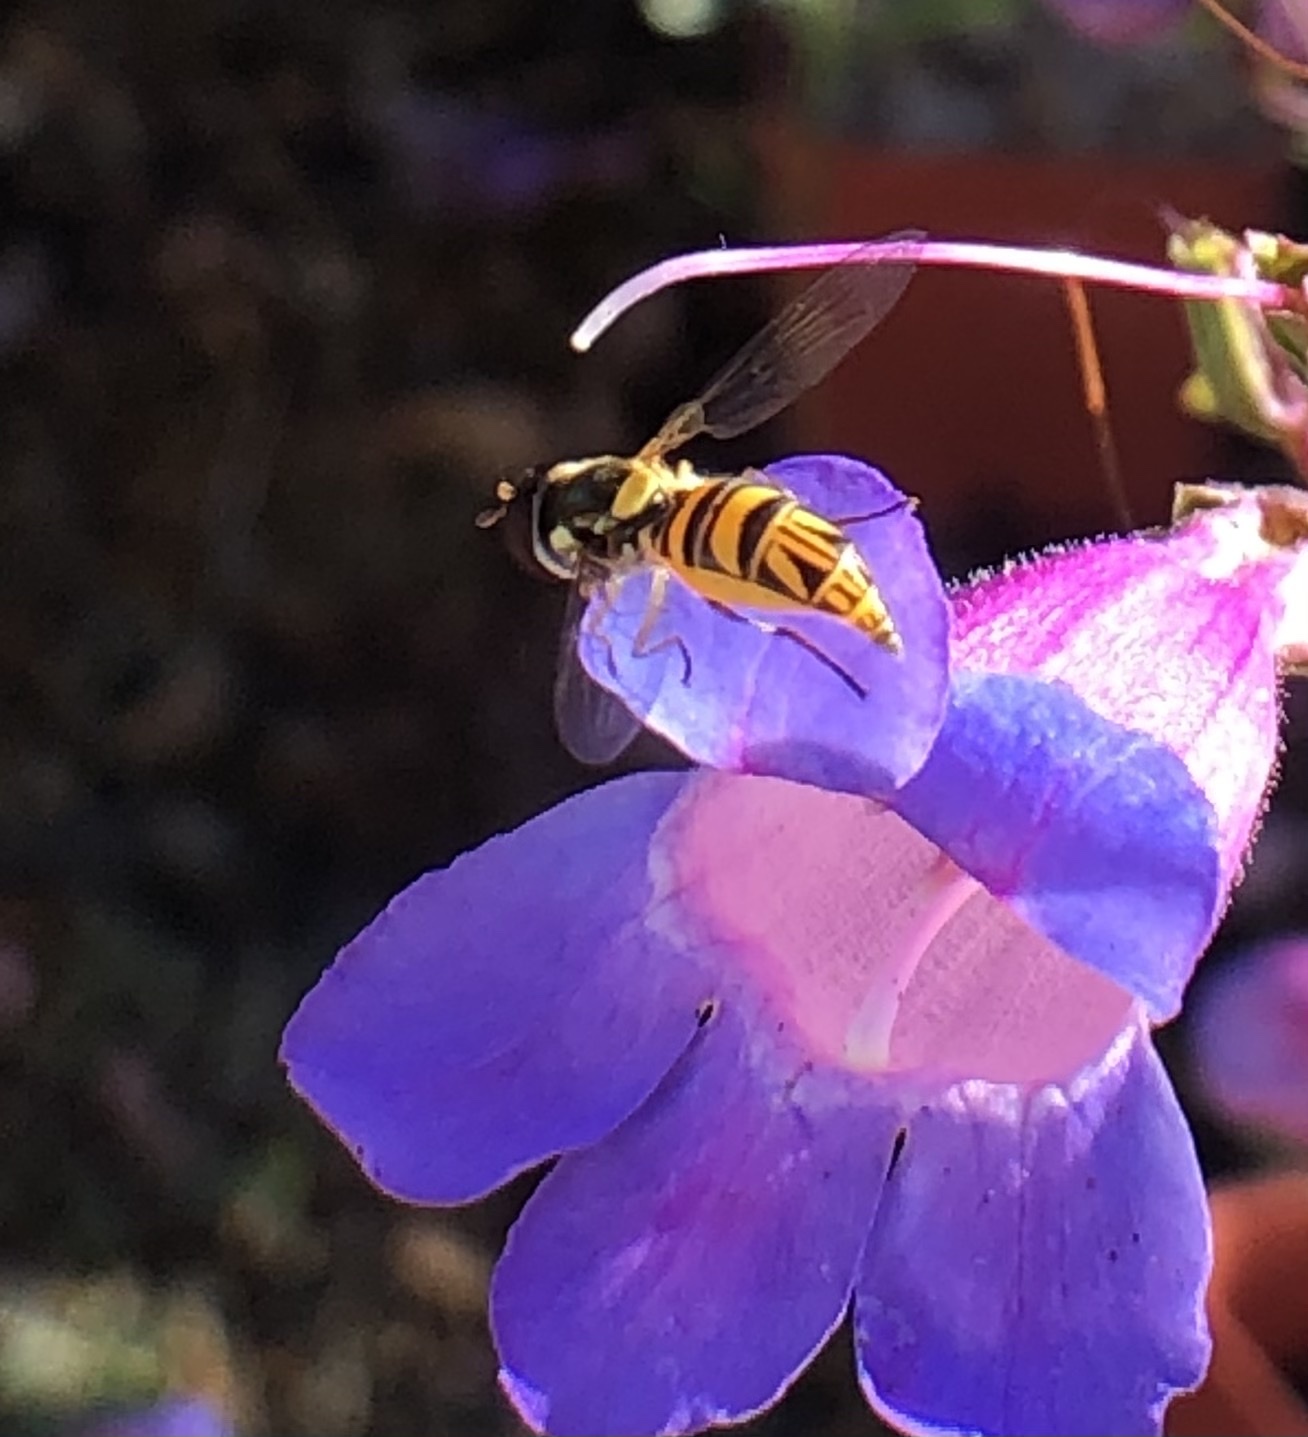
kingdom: Animalia
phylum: Arthropoda
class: Insecta
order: Diptera
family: Syrphidae
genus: Allograpta
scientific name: Allograpta obliqua
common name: Common oblique syrphid
